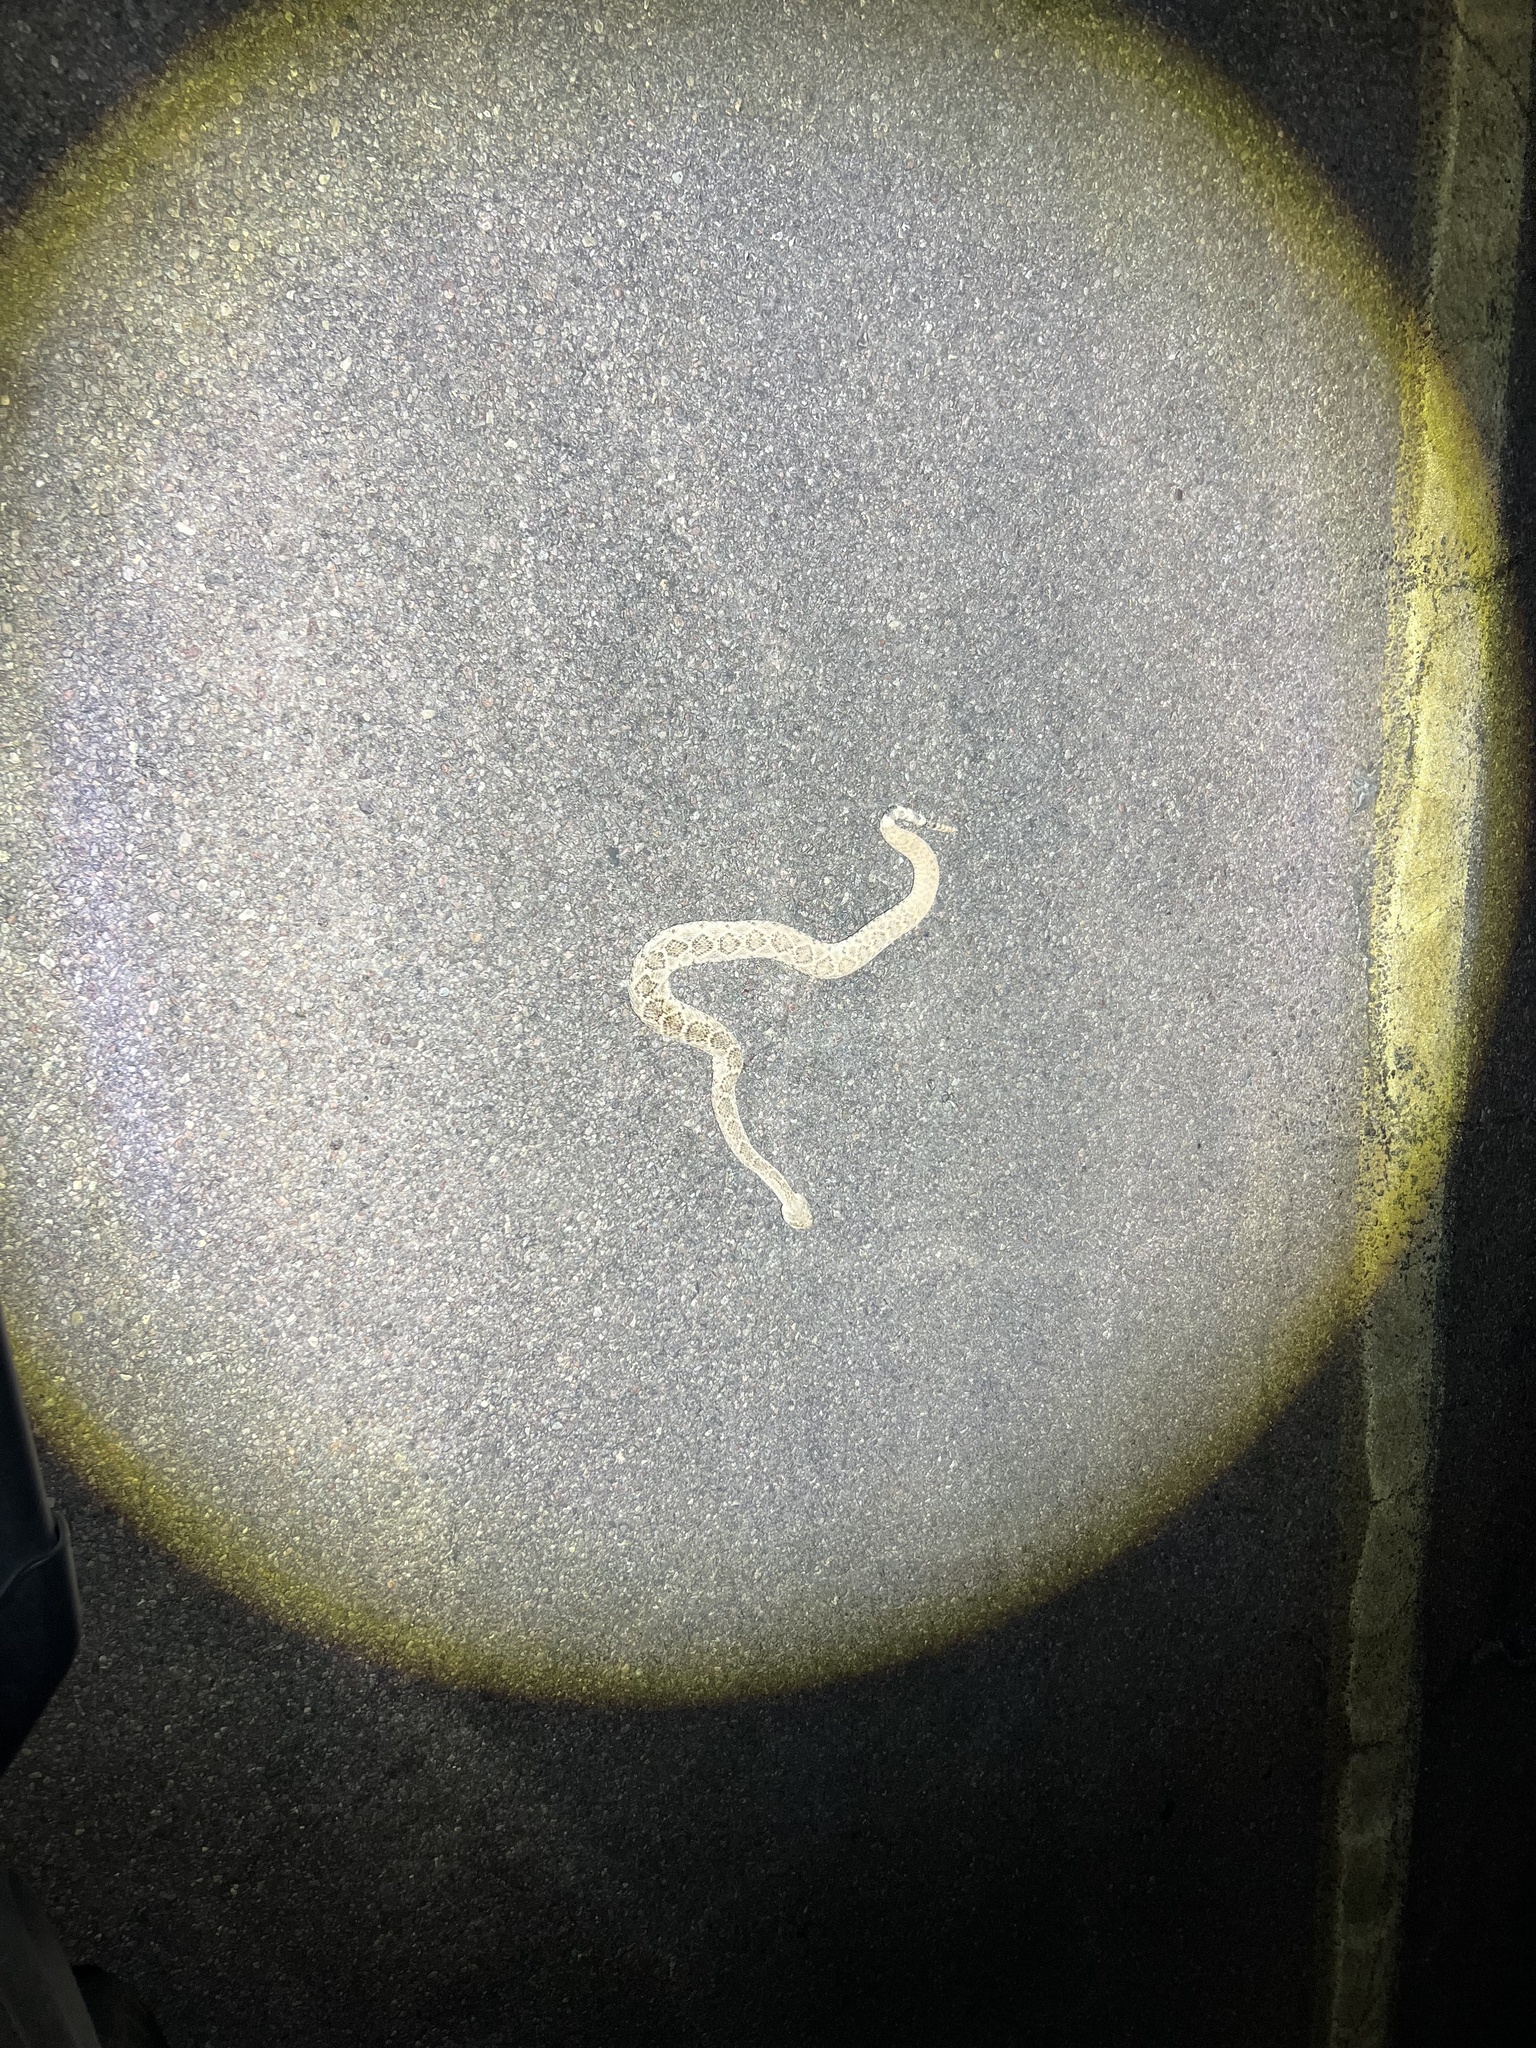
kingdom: Animalia
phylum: Chordata
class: Squamata
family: Viperidae
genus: Crotalus
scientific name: Crotalus atrox
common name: Western diamond-backed rattlesnake
